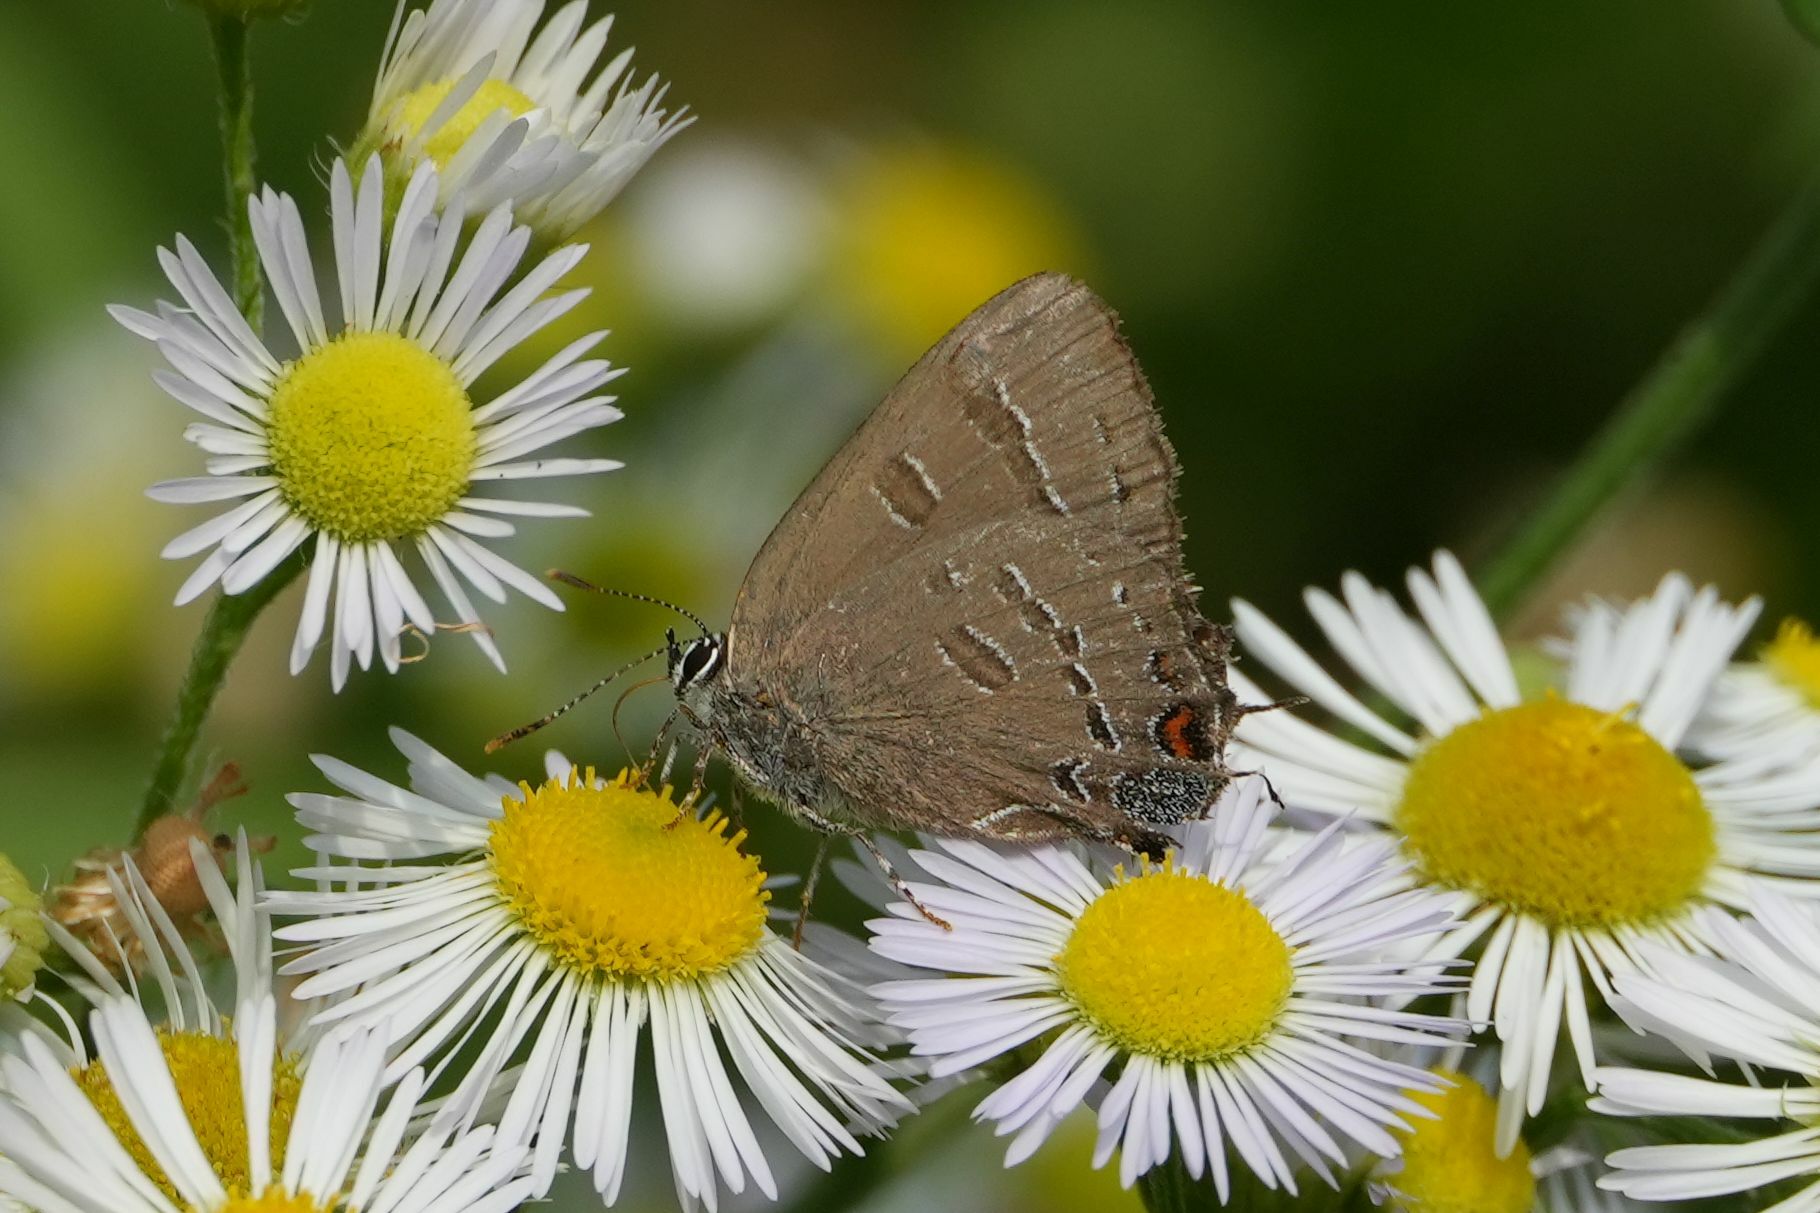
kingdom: Animalia
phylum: Arthropoda
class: Insecta
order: Lepidoptera
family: Lycaenidae
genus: Satyrium
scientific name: Satyrium calanus
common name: Banded hairstreak
